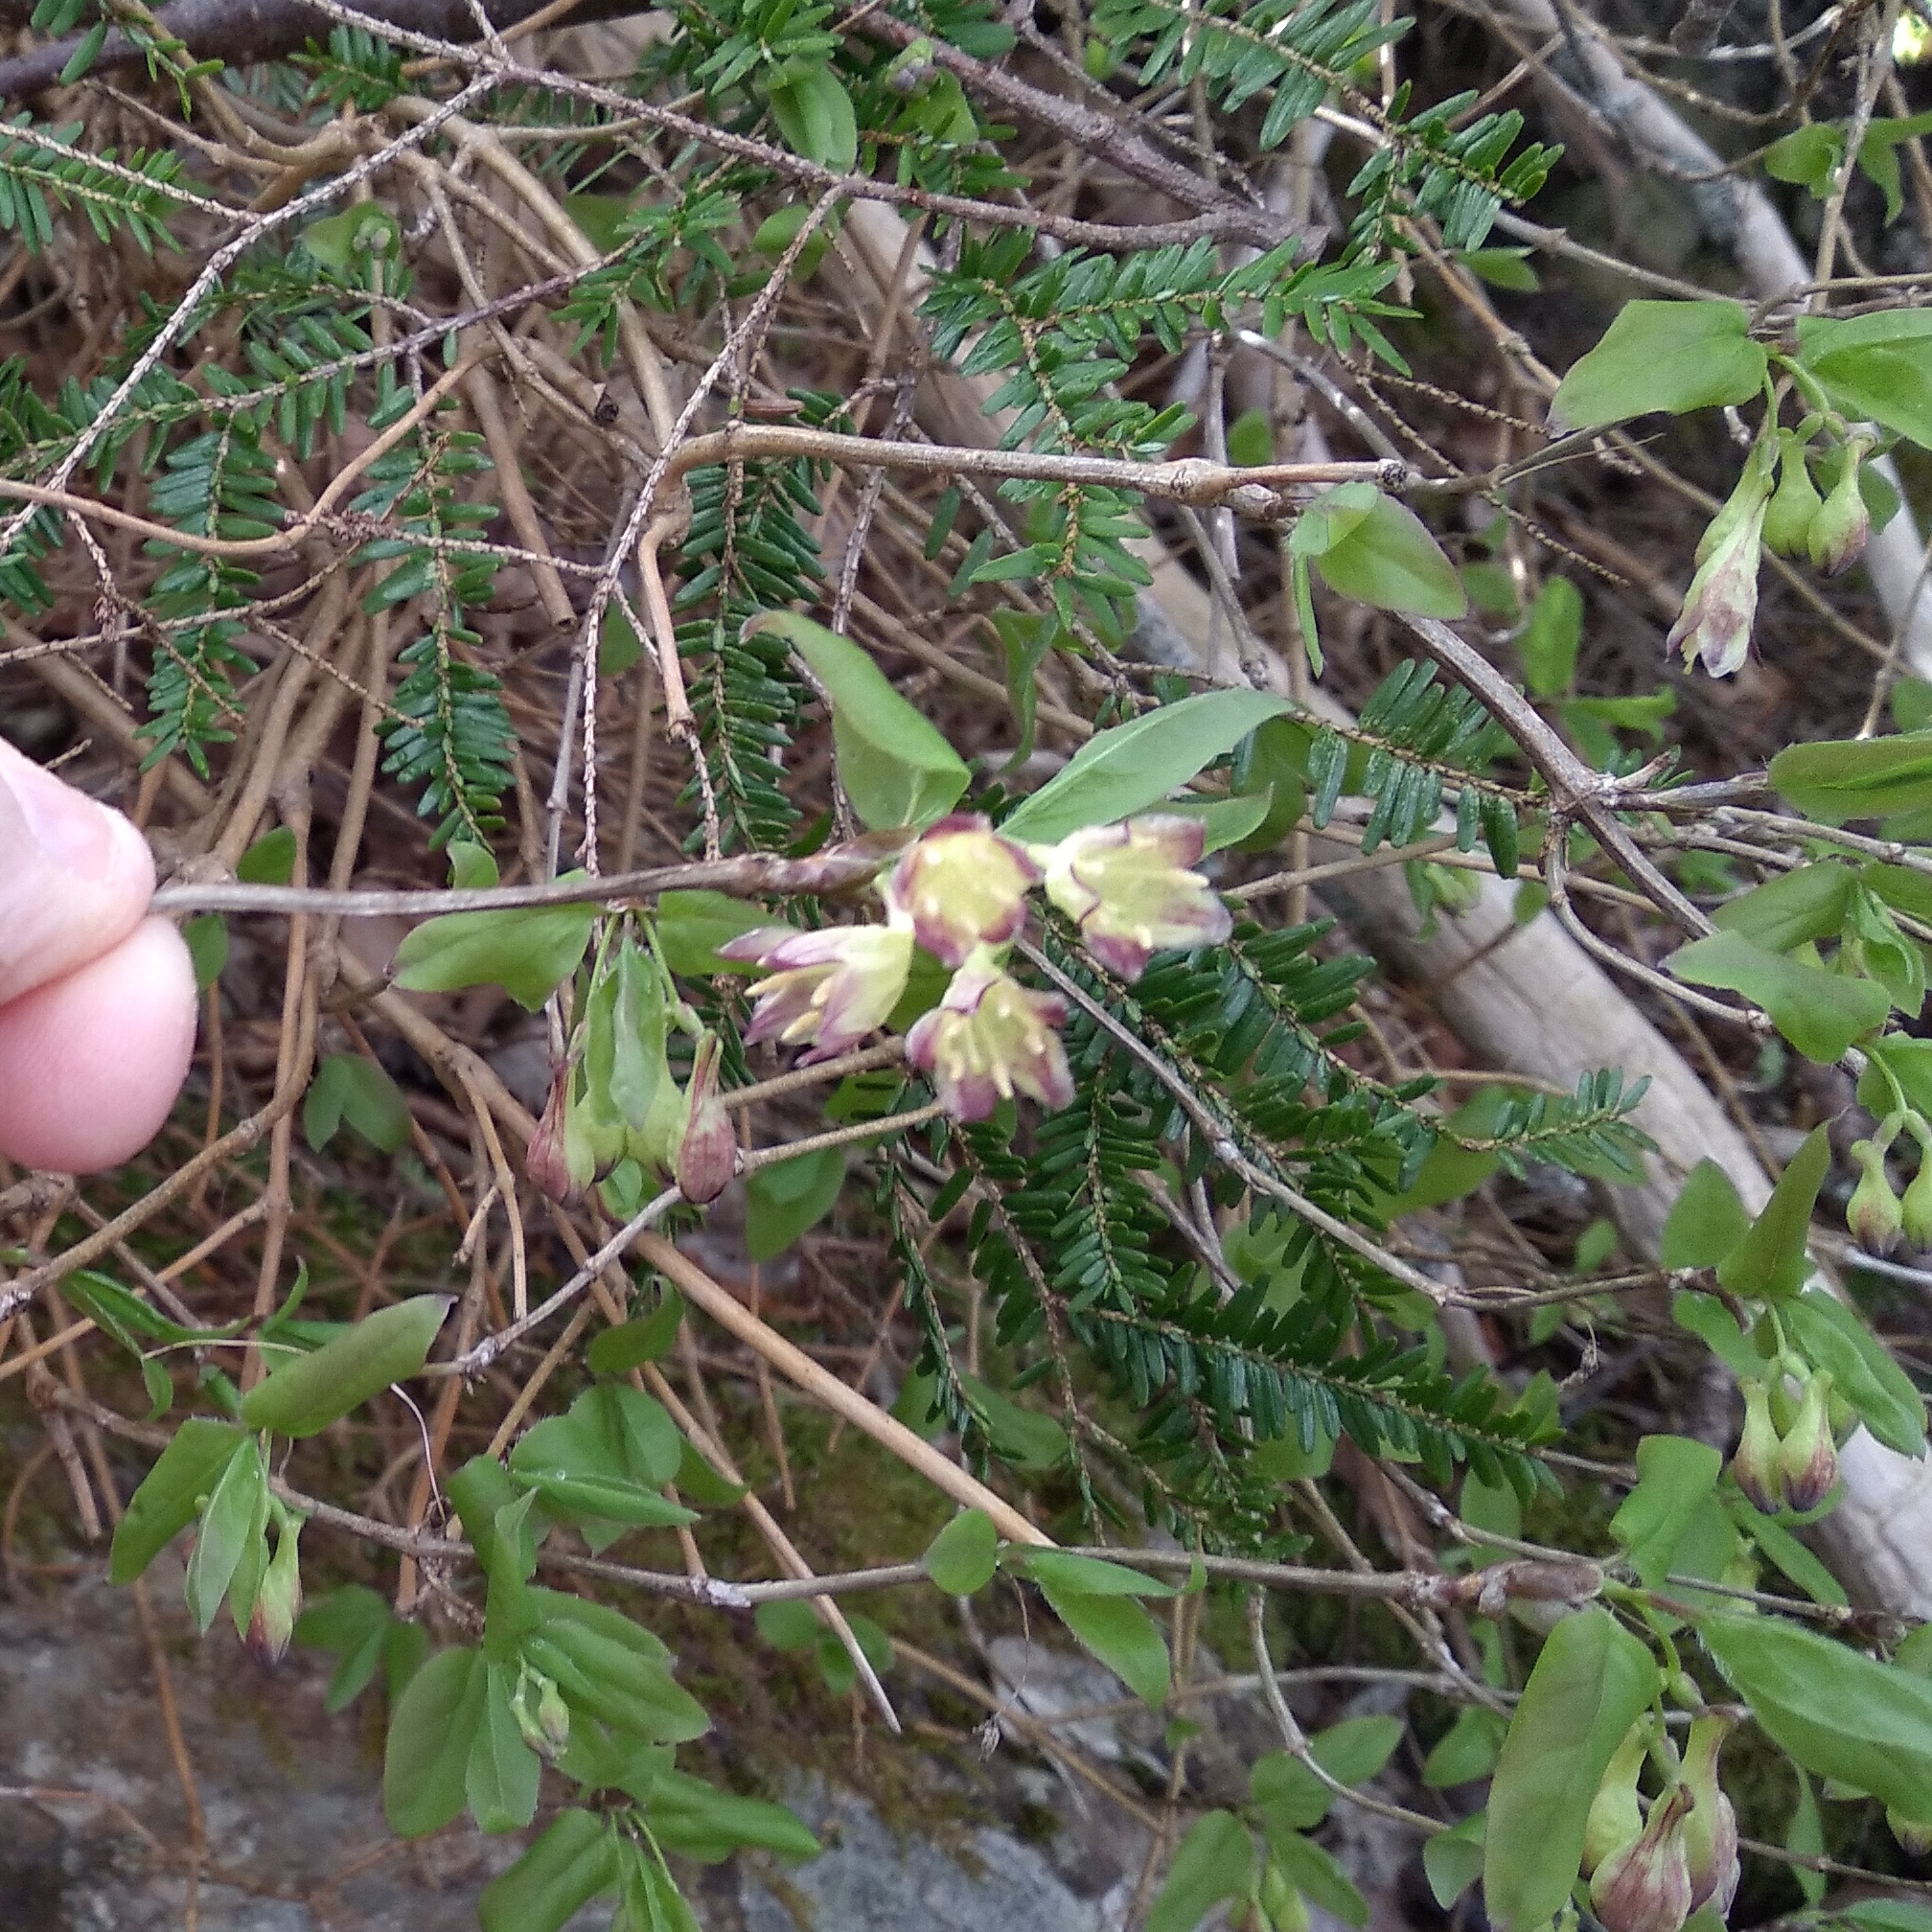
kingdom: Plantae
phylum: Tracheophyta
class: Magnoliopsida
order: Dipsacales
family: Caprifoliaceae
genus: Lonicera
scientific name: Lonicera canadensis
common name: American fly-honeysuckle
